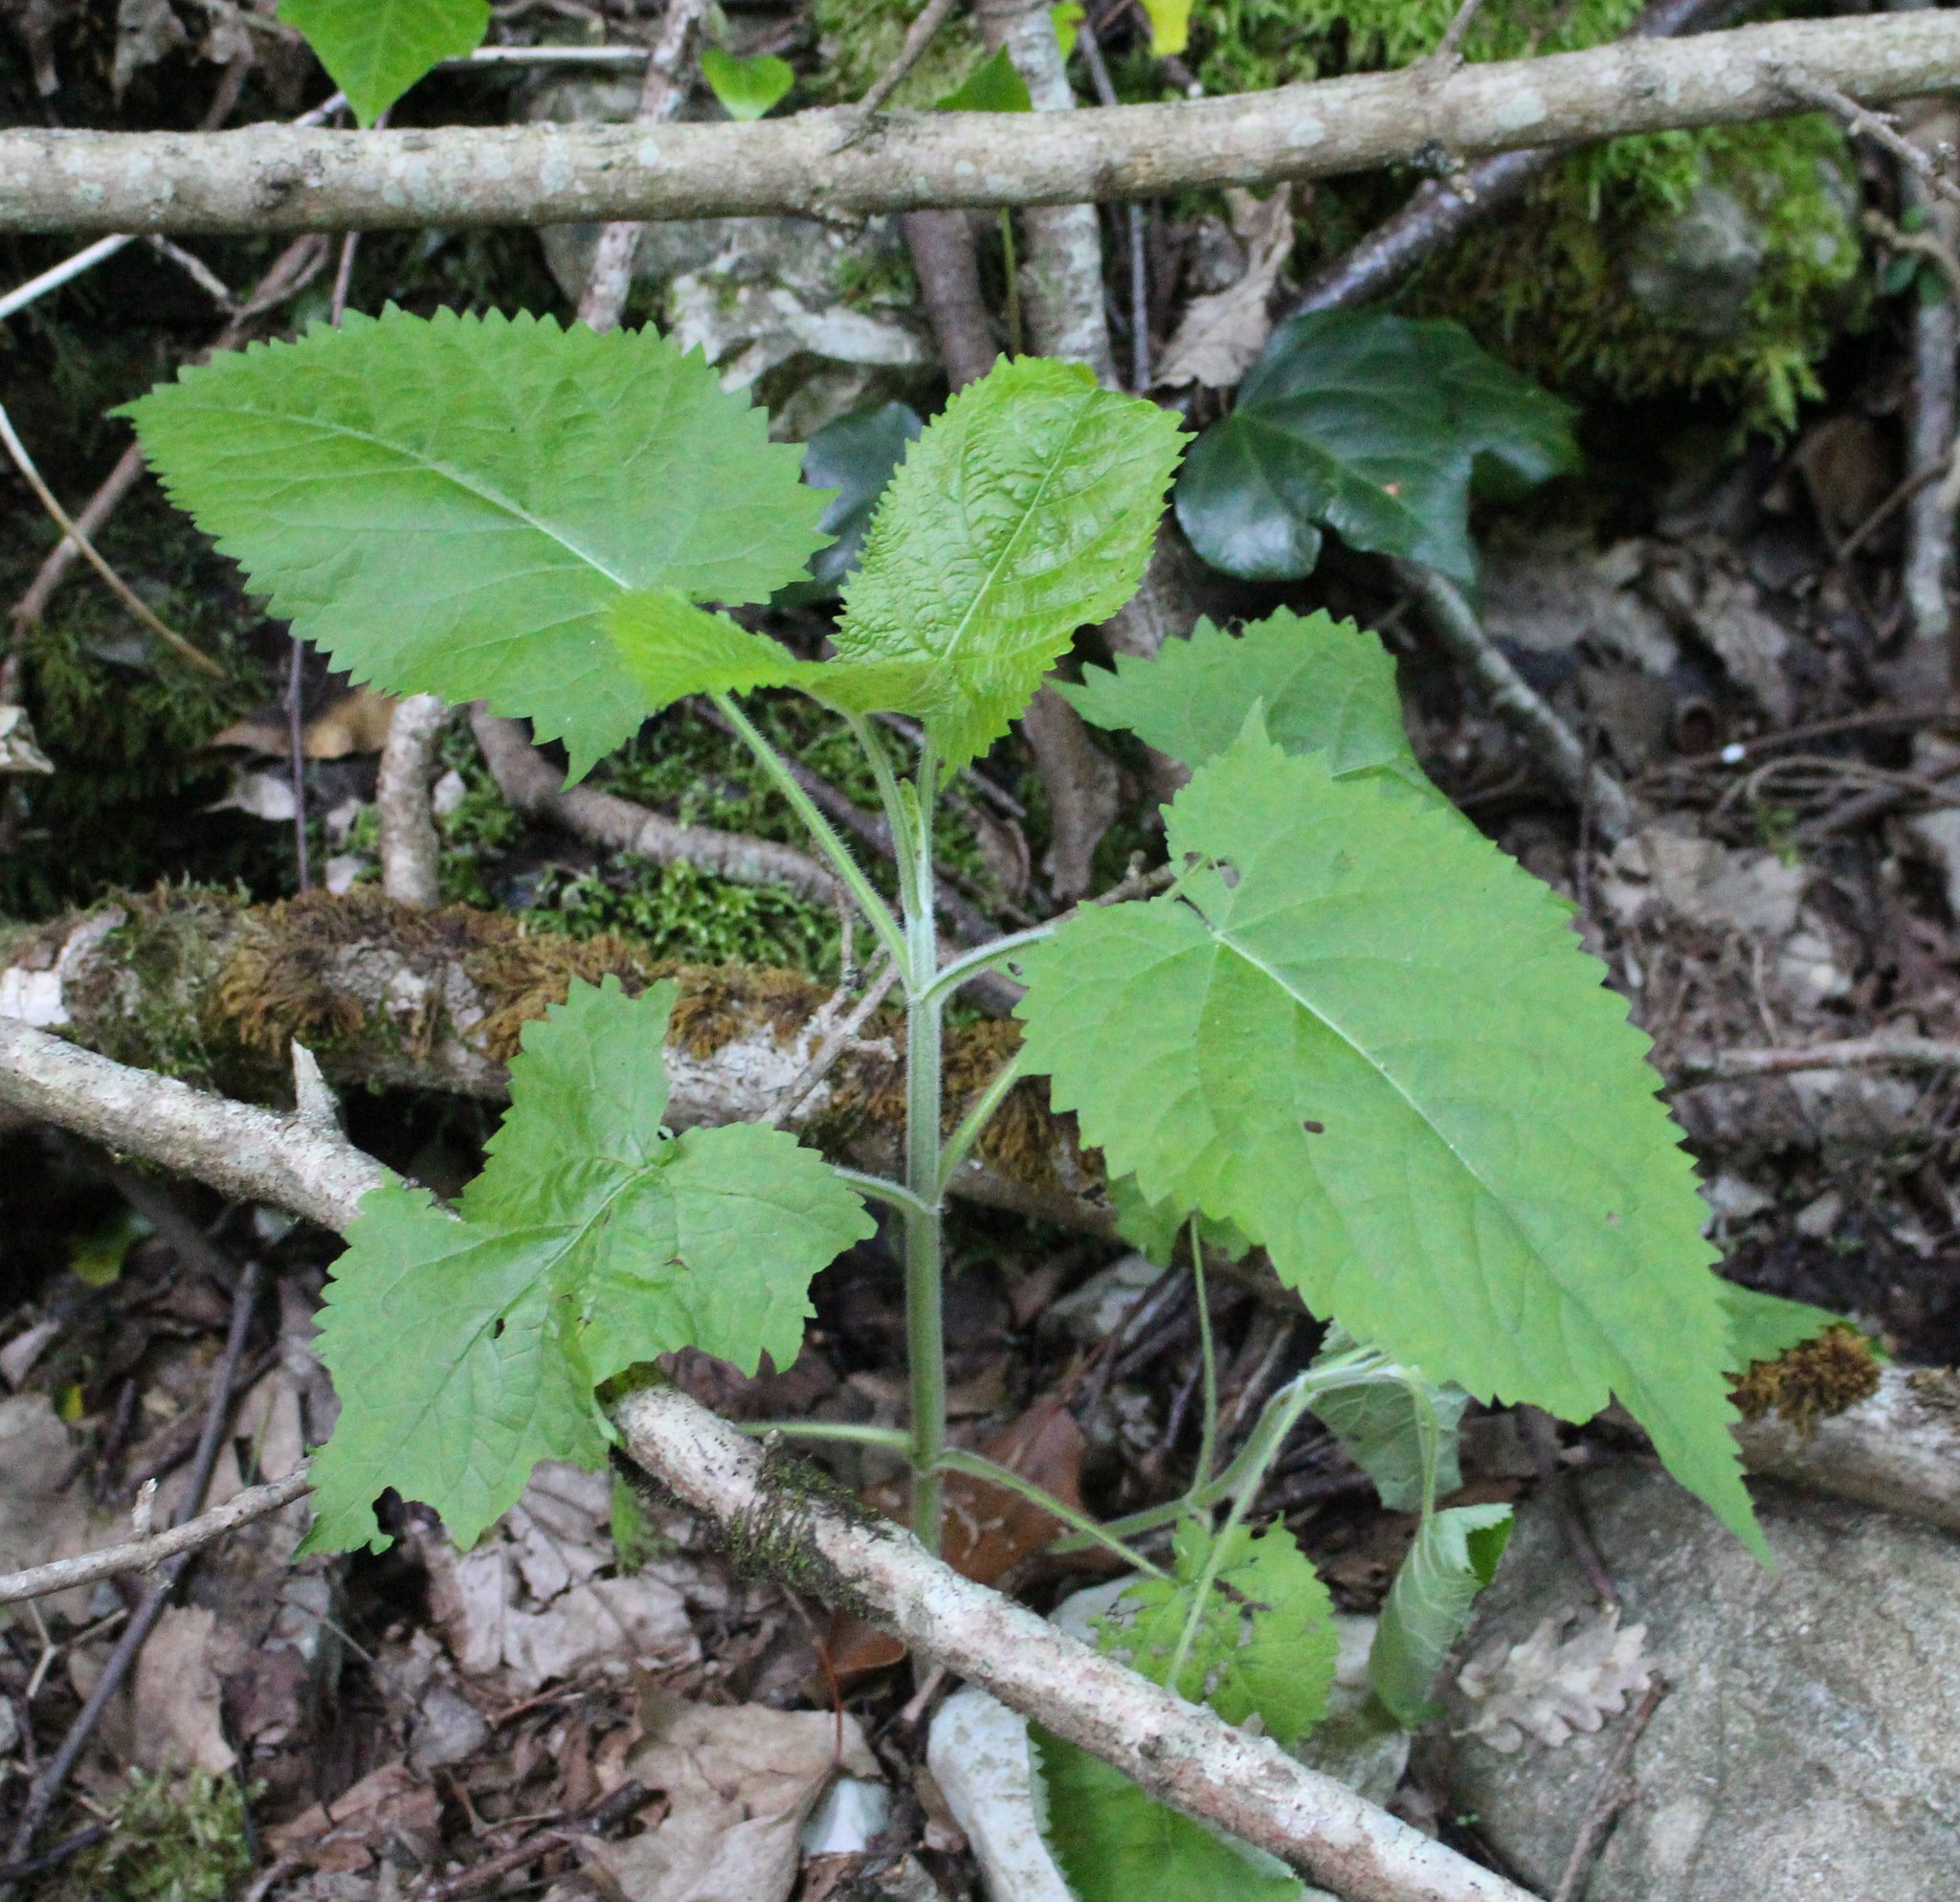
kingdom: Plantae
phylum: Tracheophyta
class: Magnoliopsida
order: Lamiales
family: Lamiaceae
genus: Salvia
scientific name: Salvia glutinosa
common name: Sticky clary
